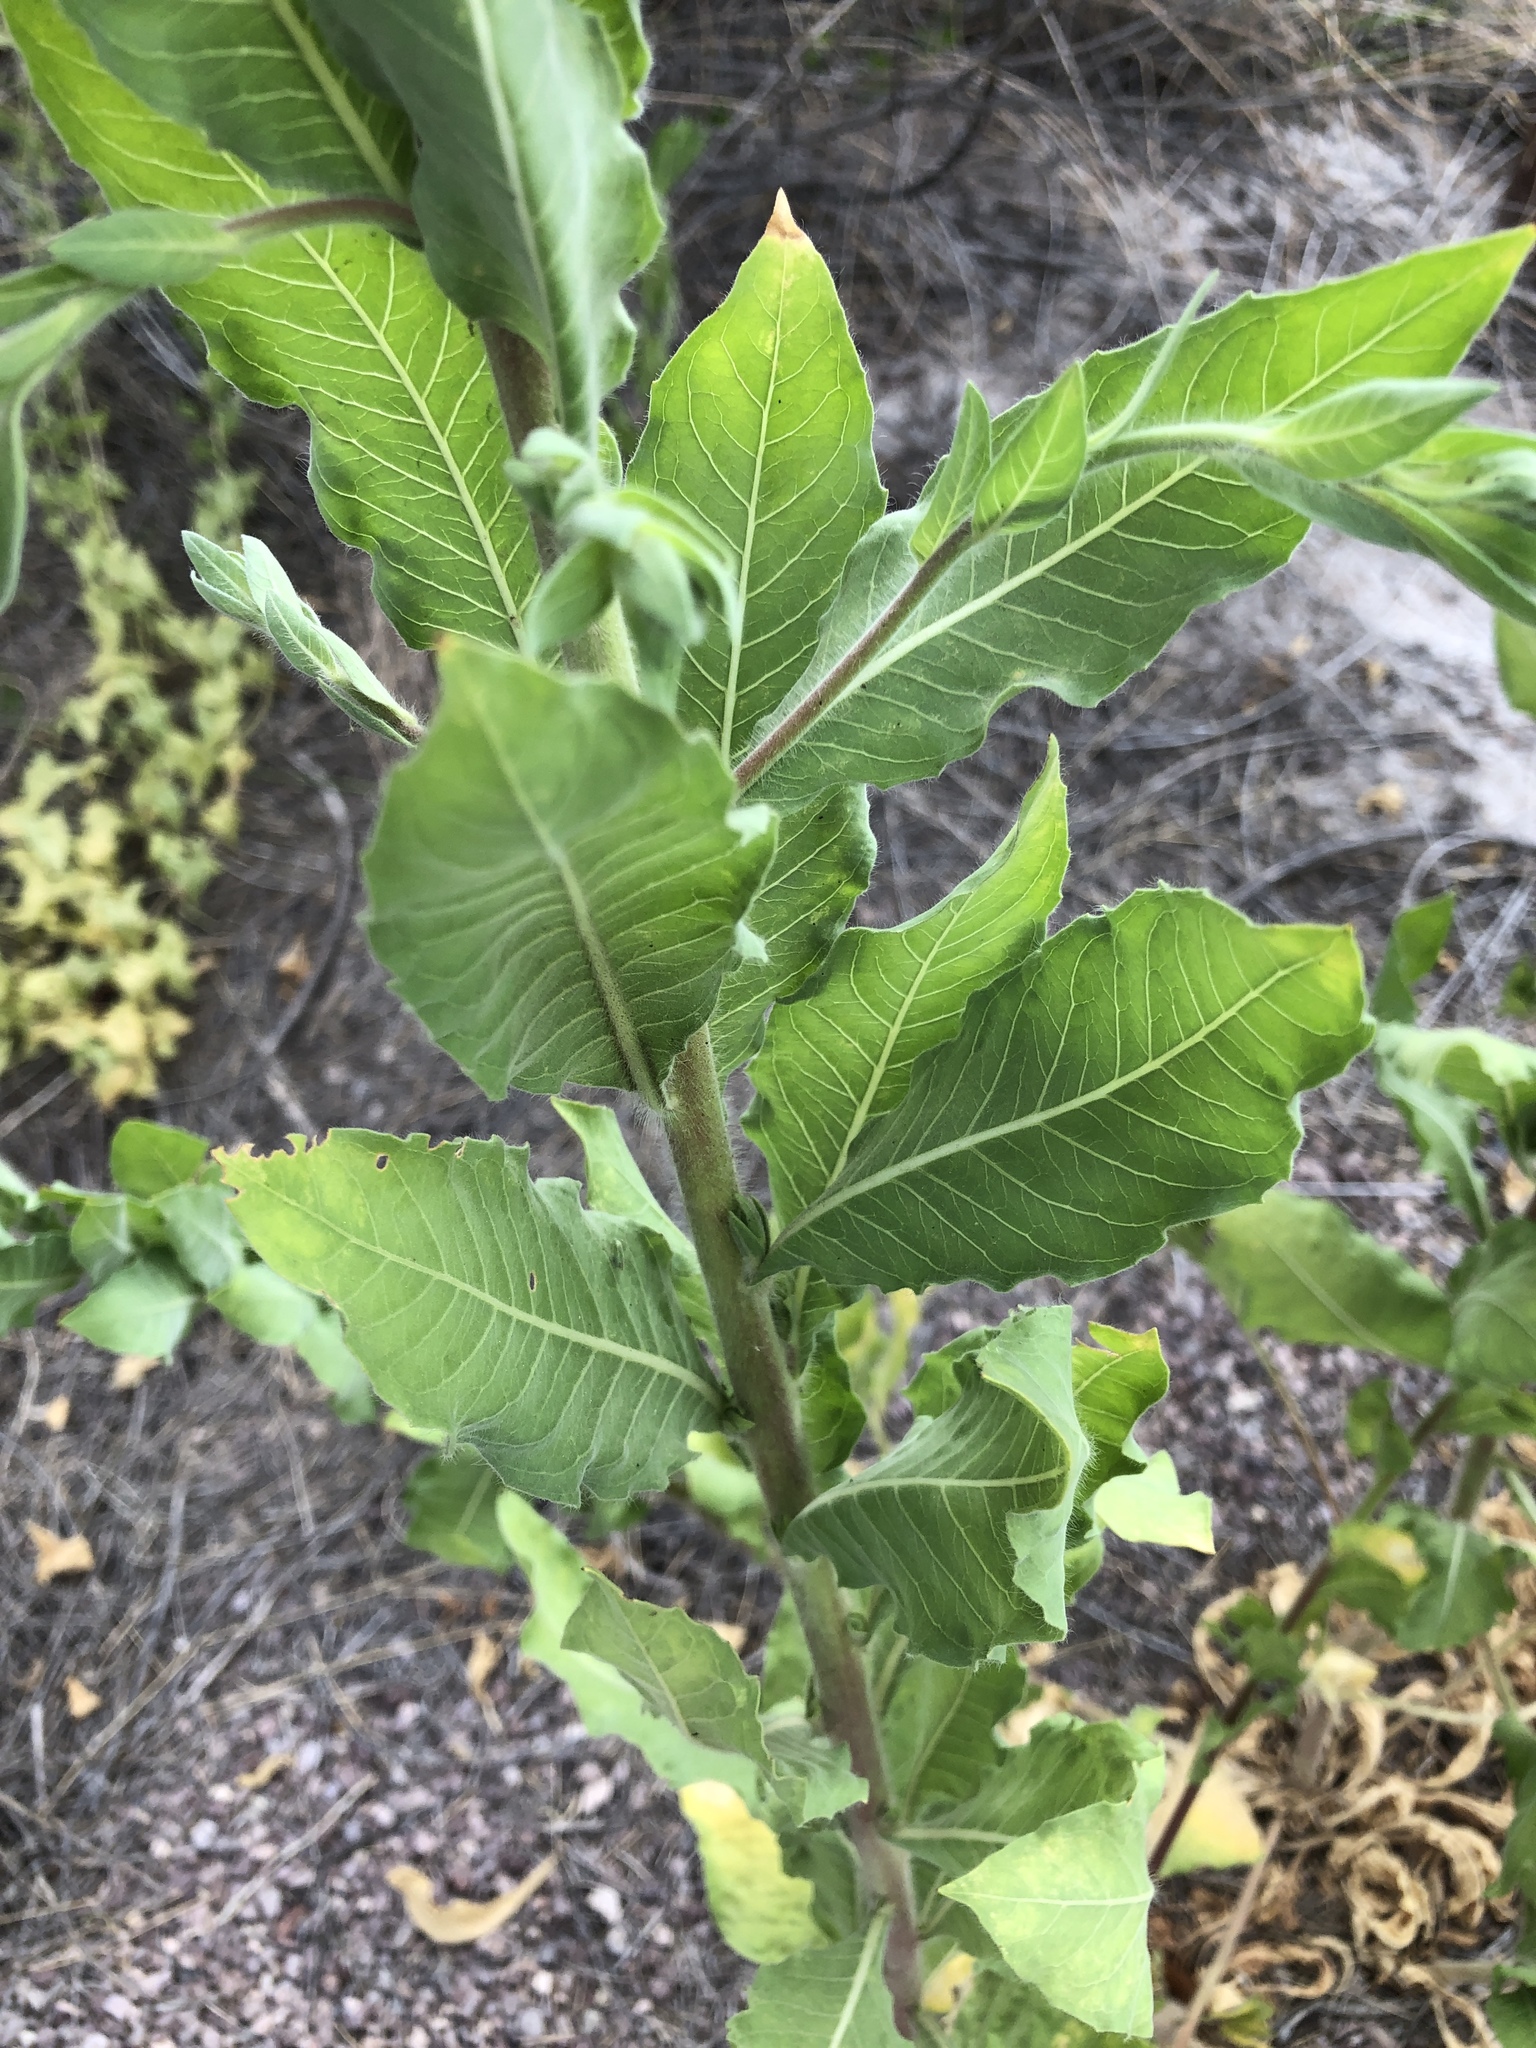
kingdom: Plantae
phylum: Tracheophyta
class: Magnoliopsida
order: Myrtales
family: Onagraceae
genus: Oenothera
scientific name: Oenothera curtiflora
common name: Velvetweed
